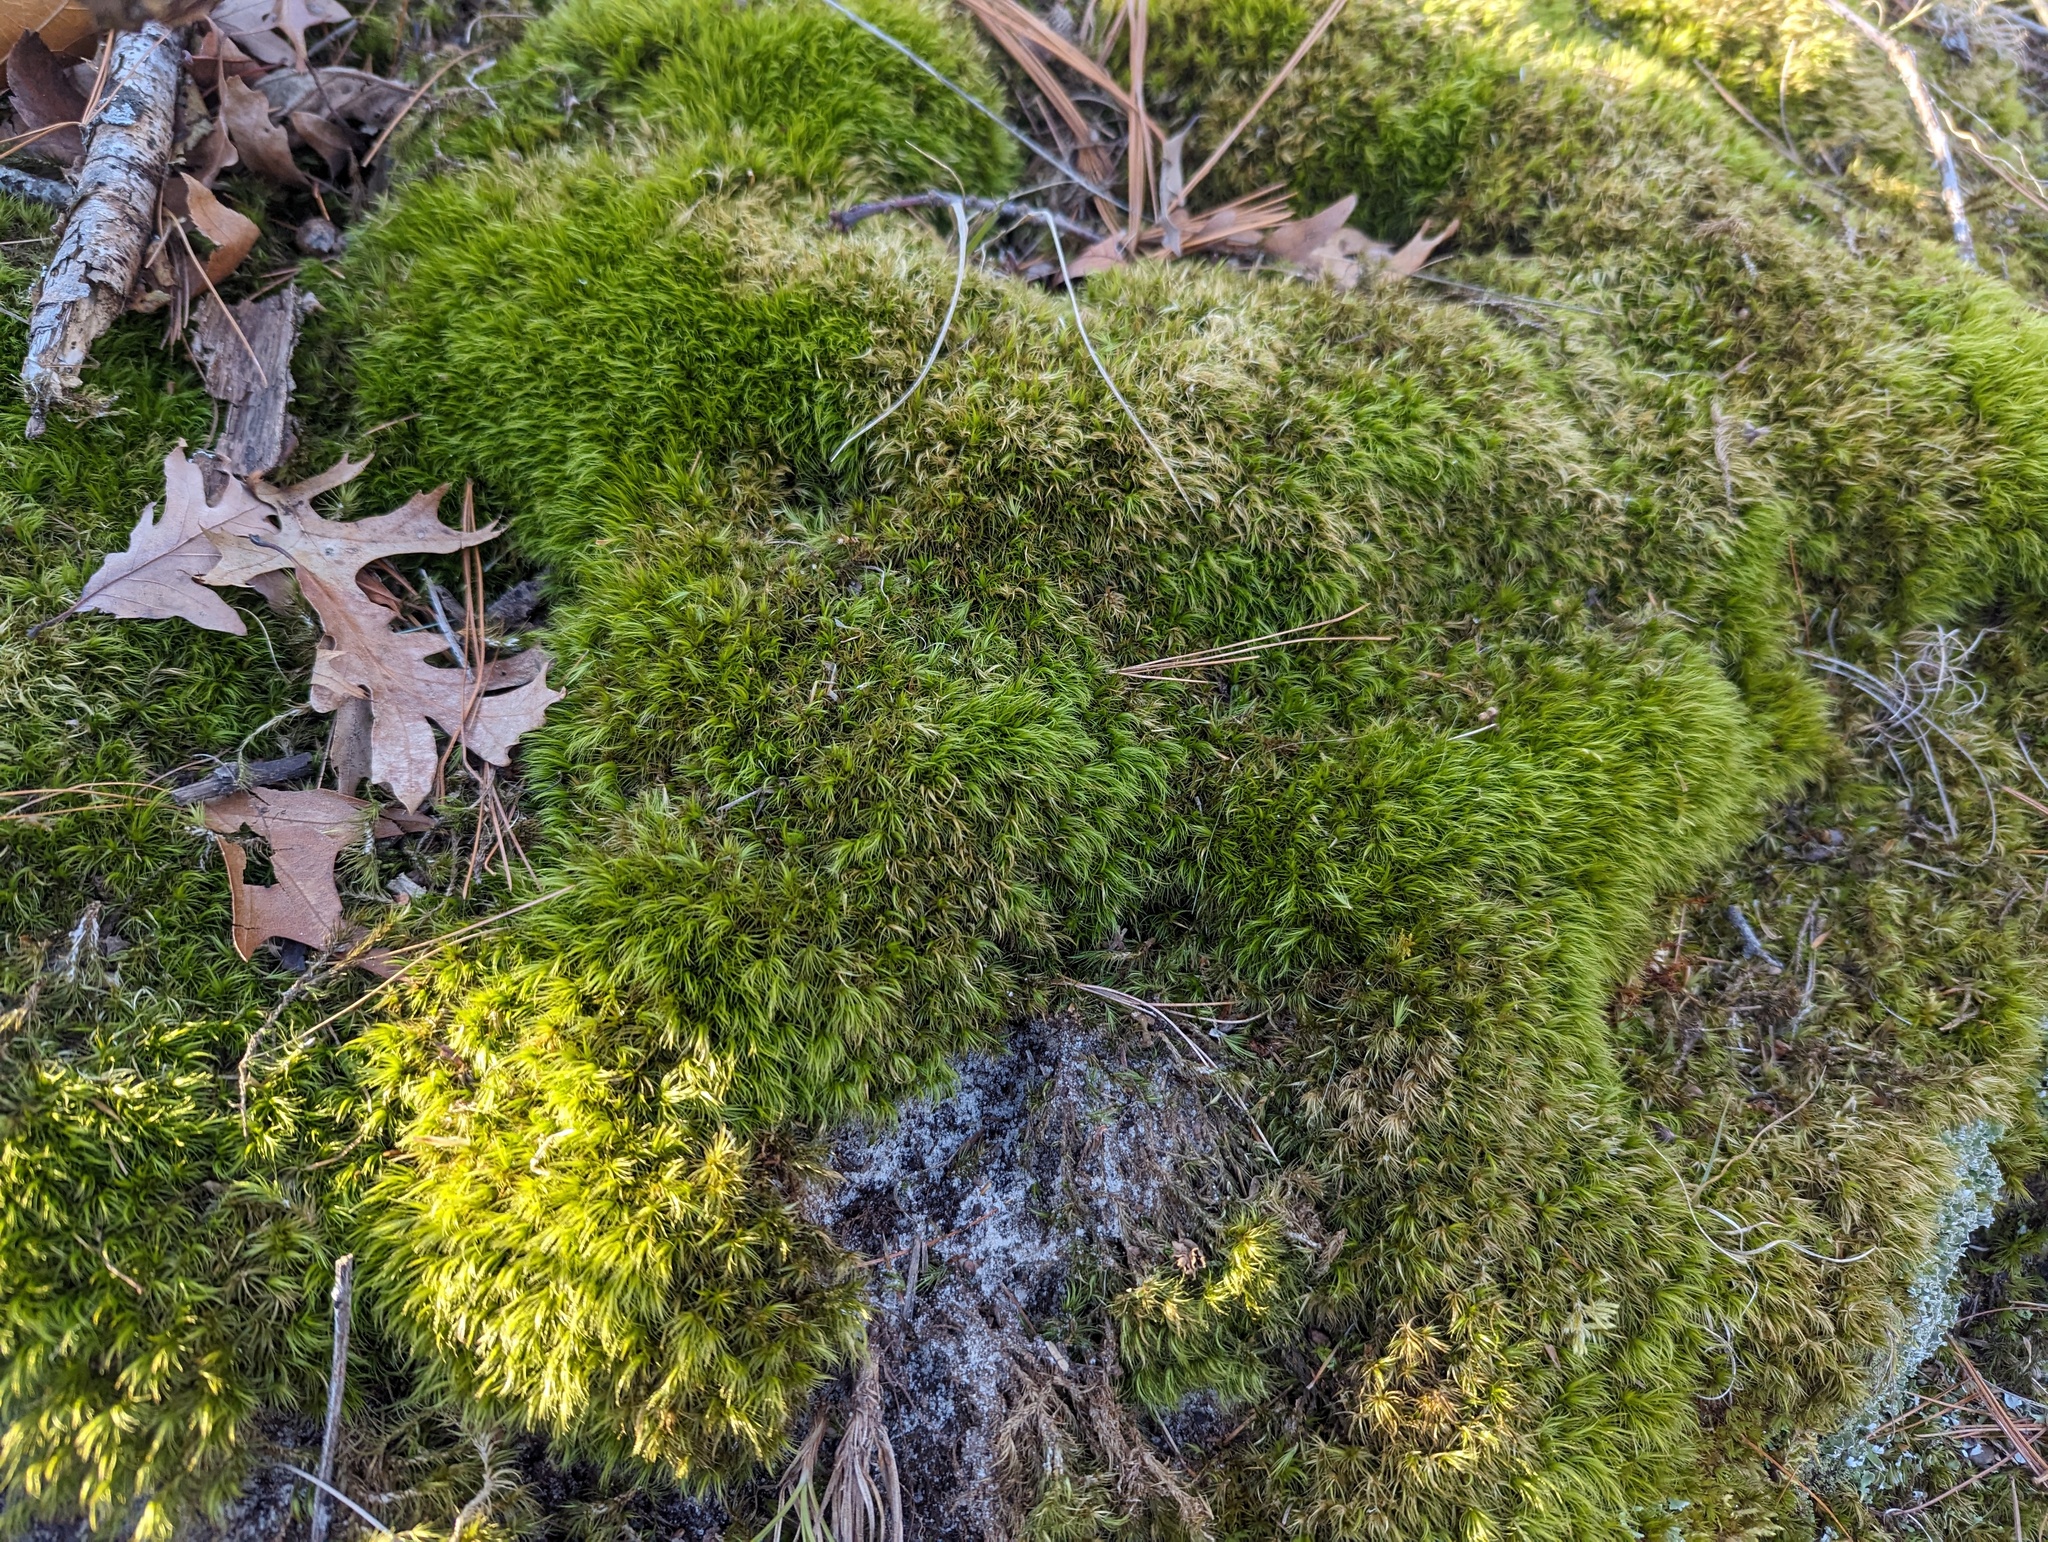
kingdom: Plantae
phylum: Bryophyta
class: Bryopsida
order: Dicranales
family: Dicranaceae
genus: Dicranum
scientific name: Dicranum scoparium
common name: Broom fork-moss
